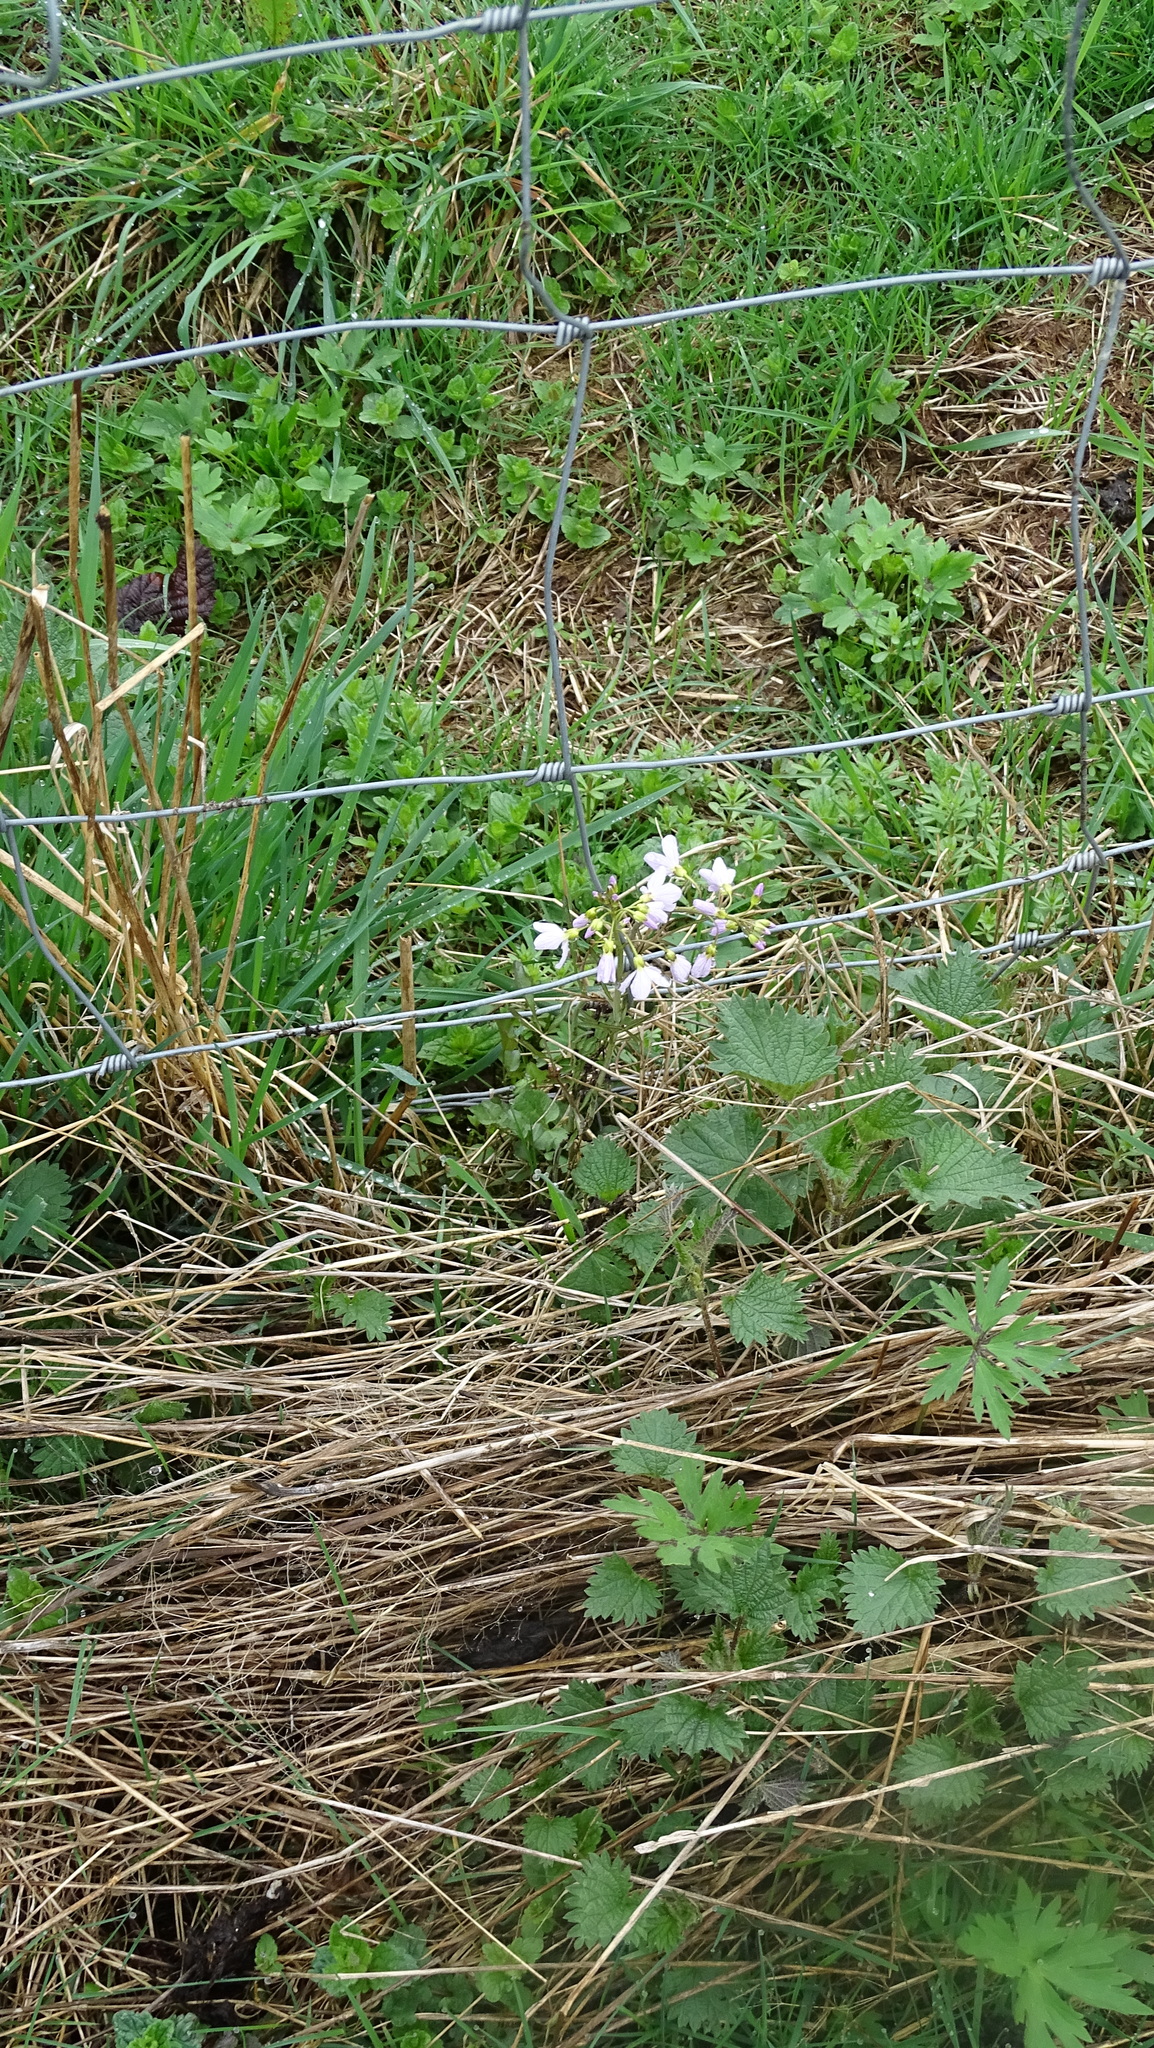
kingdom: Plantae
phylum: Tracheophyta
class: Magnoliopsida
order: Brassicales
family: Brassicaceae
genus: Cardamine
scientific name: Cardamine pratensis
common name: Cuckoo flower
